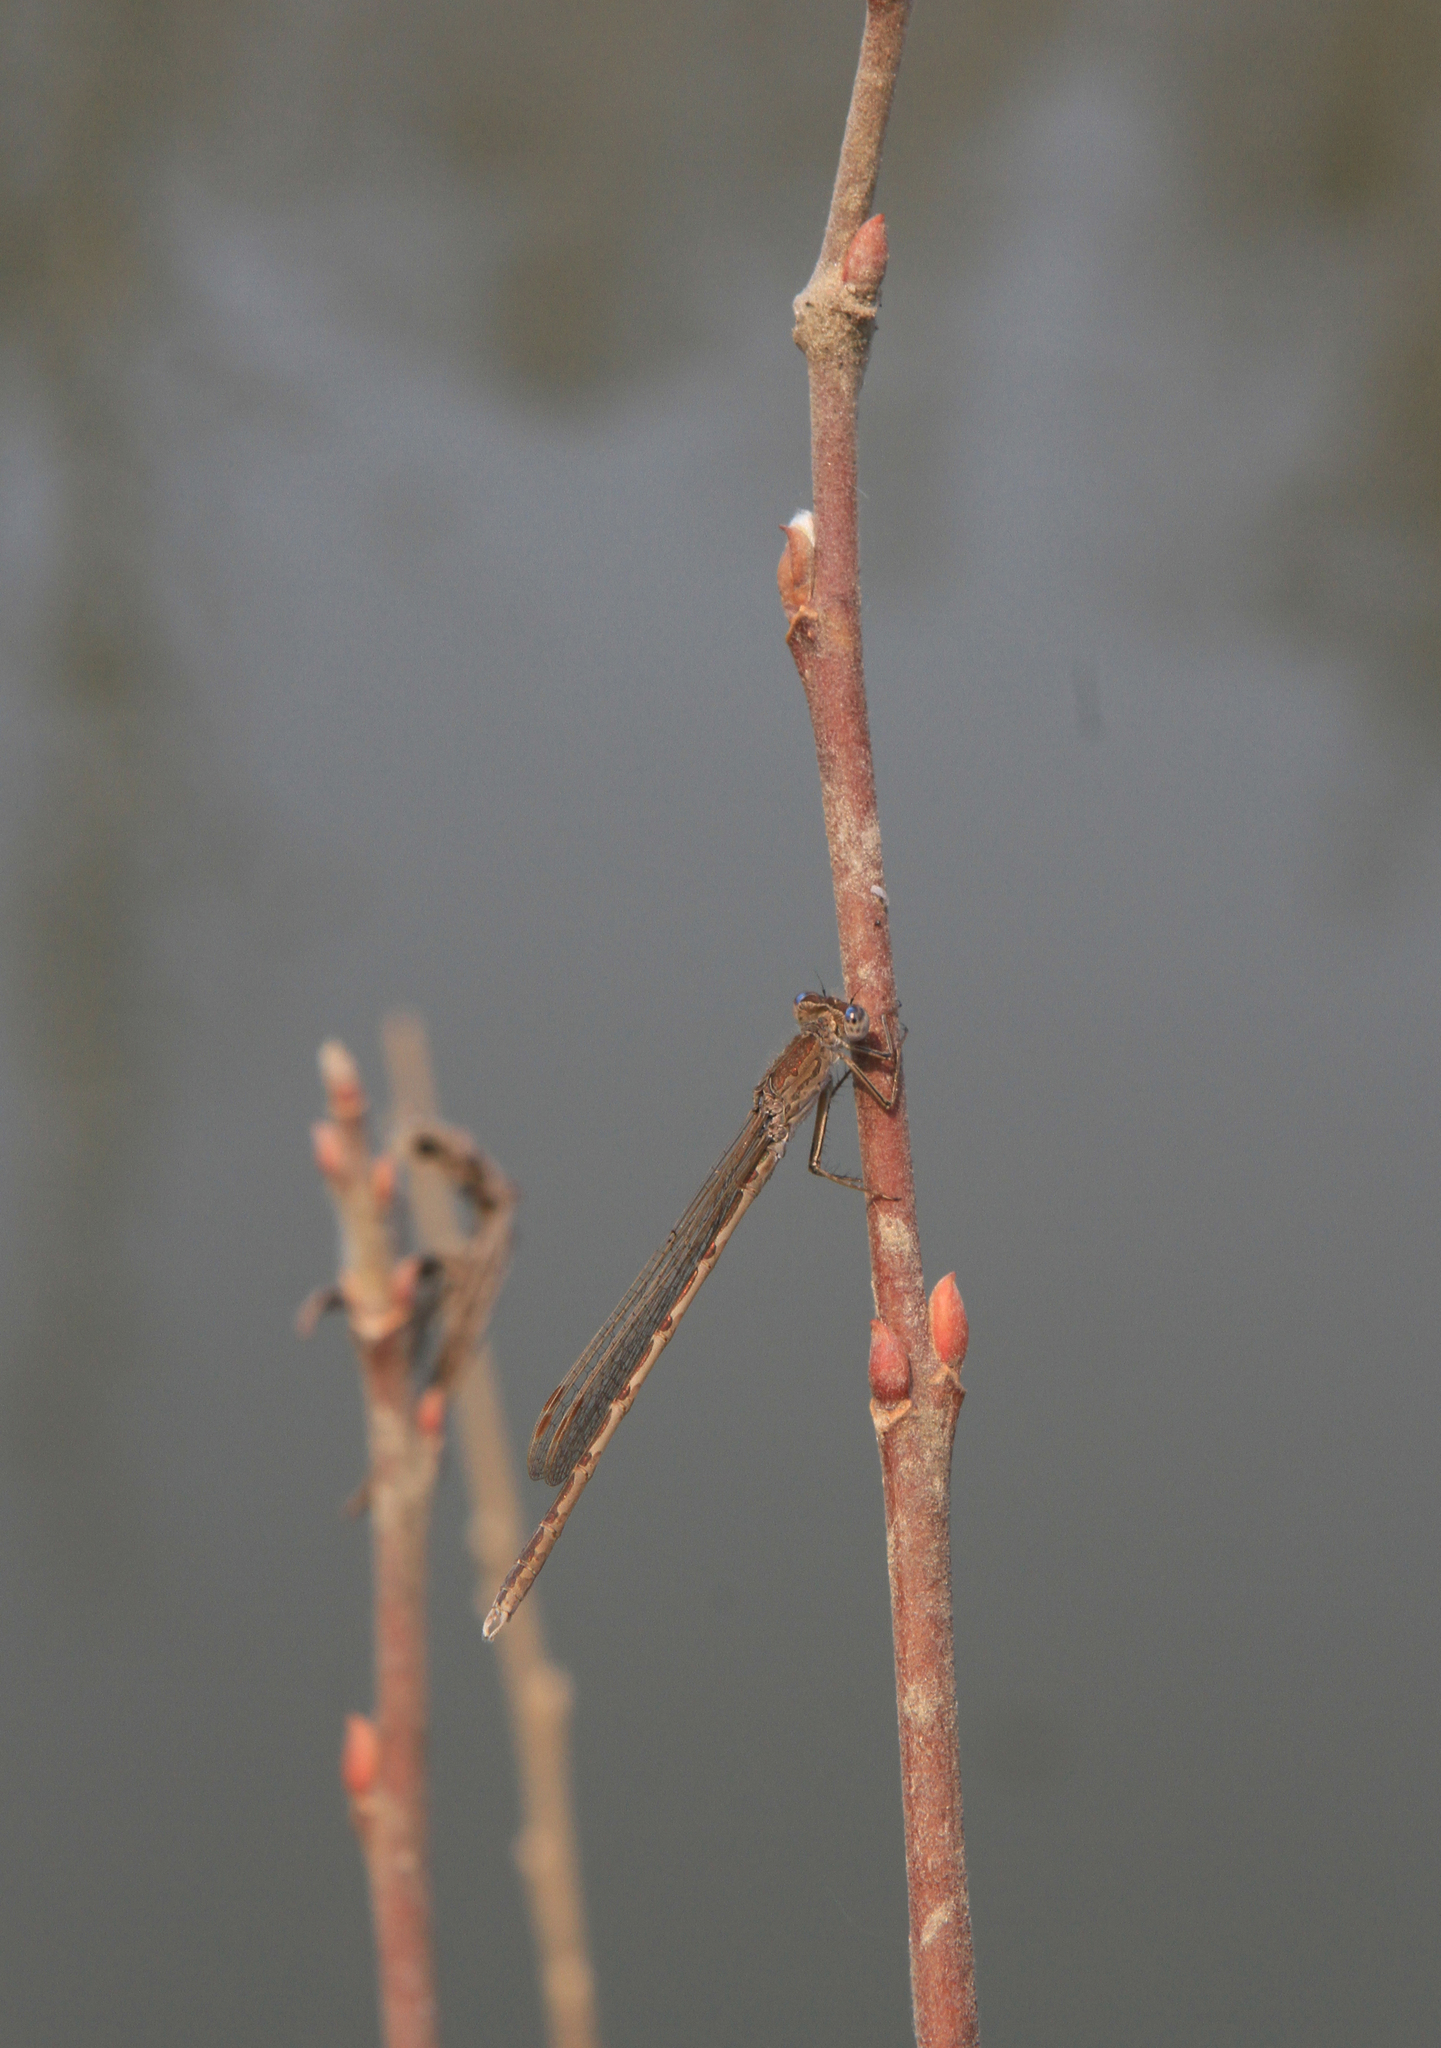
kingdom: Animalia
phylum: Arthropoda
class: Insecta
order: Odonata
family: Lestidae
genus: Sympecma
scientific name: Sympecma paedisca
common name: Siberian winter damsel
